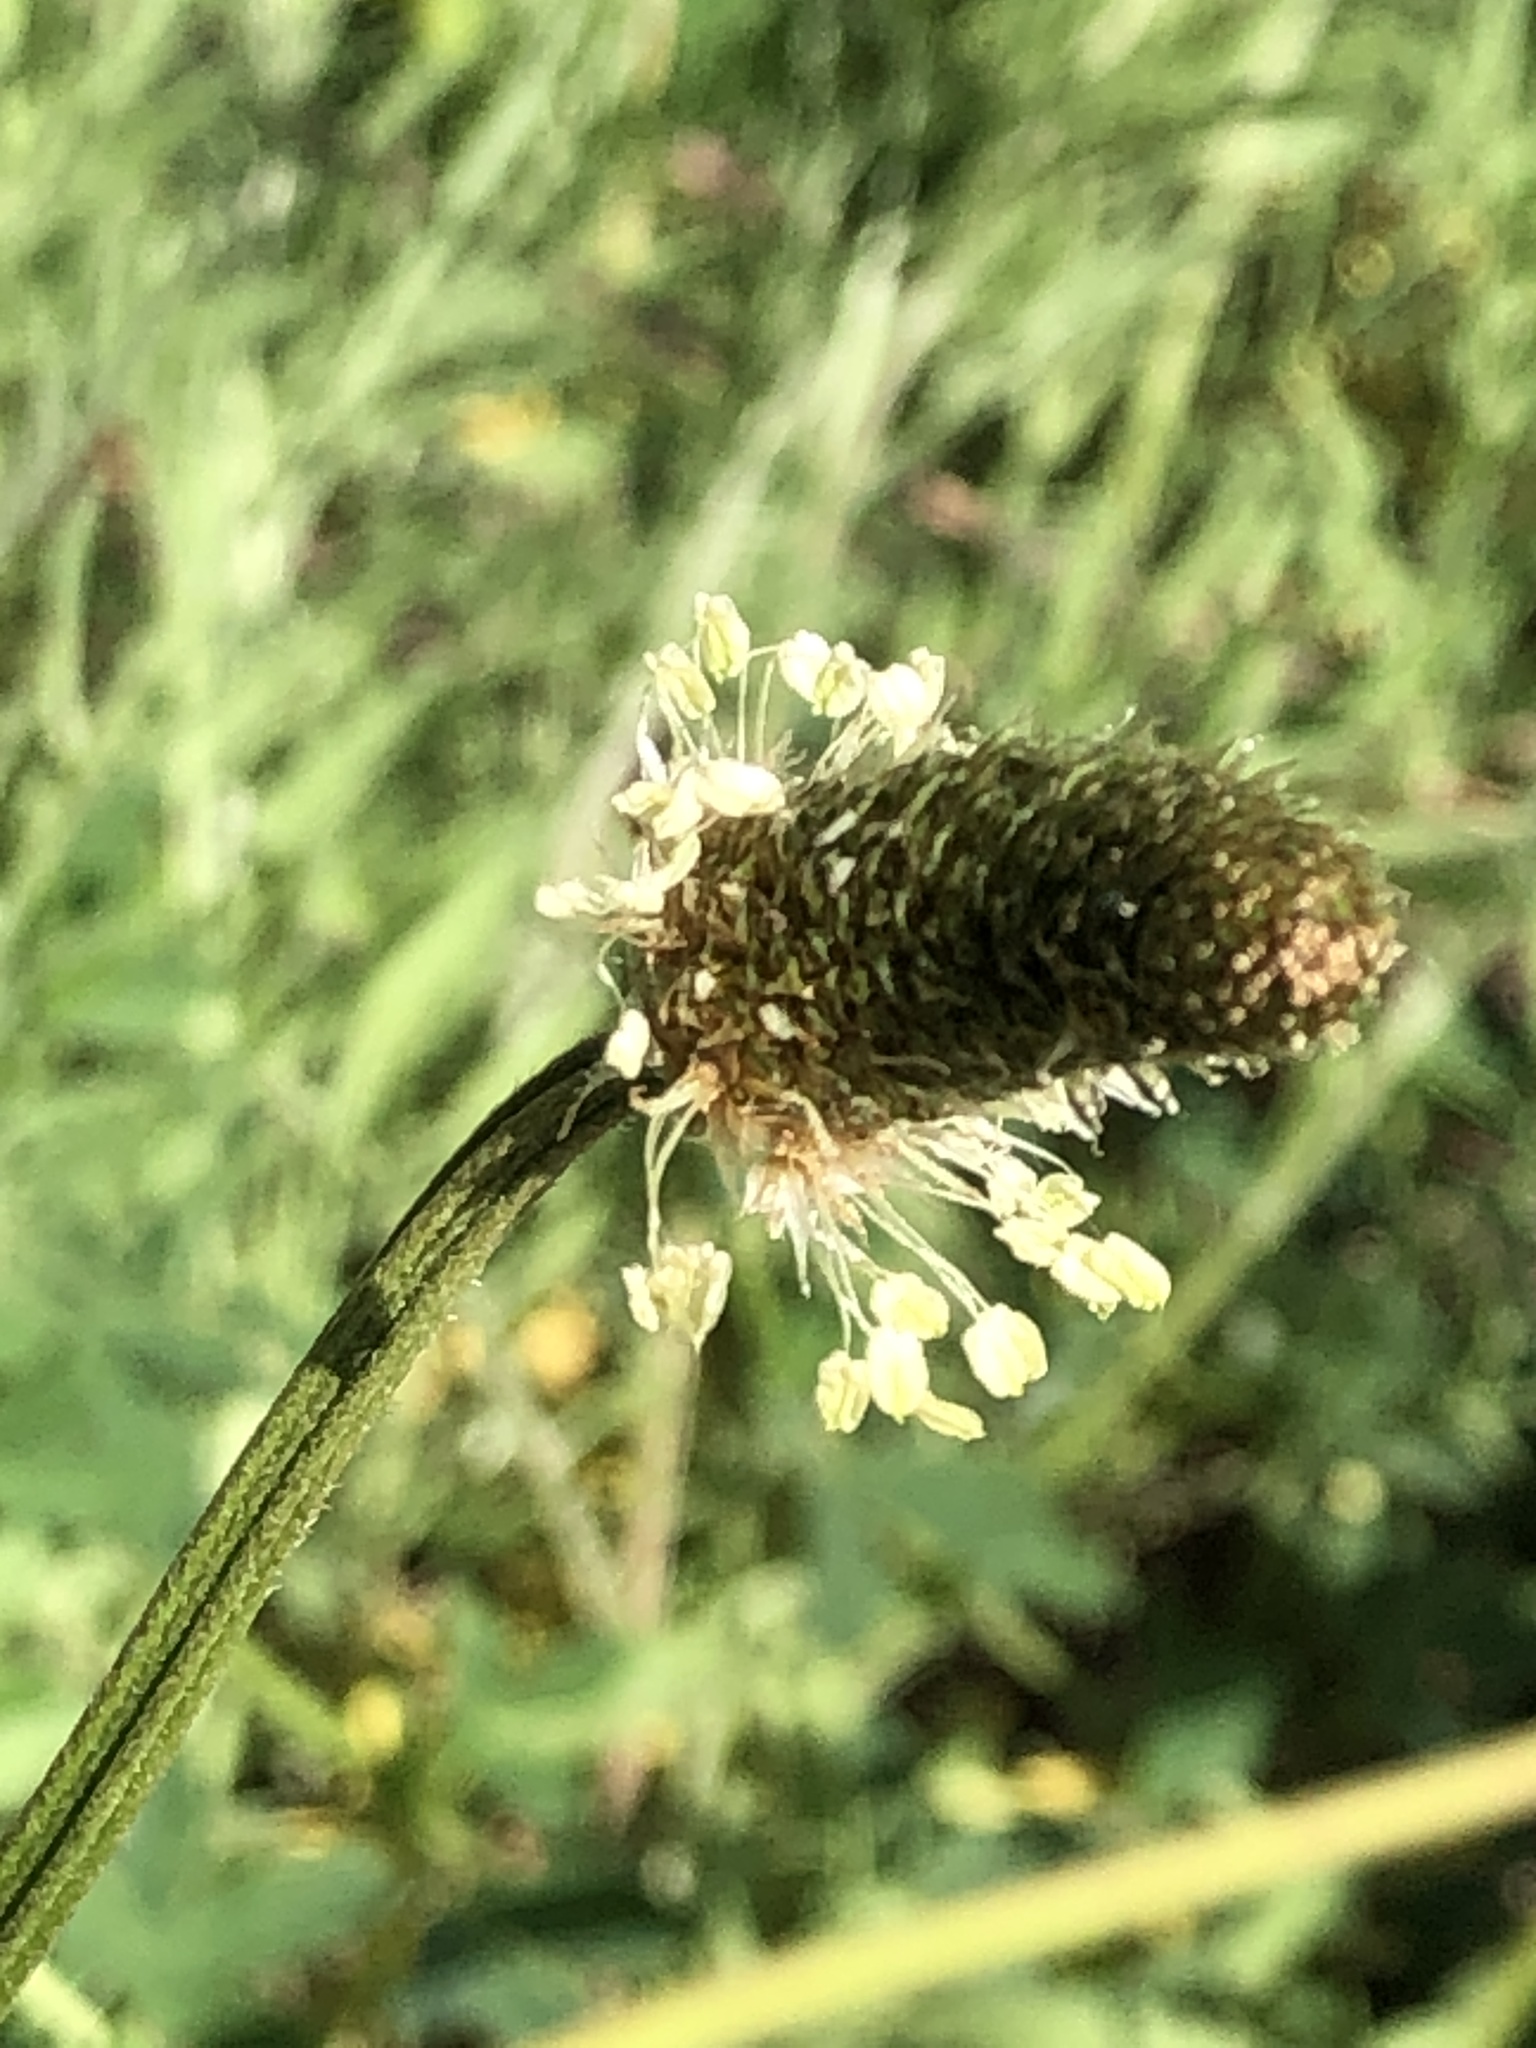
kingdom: Plantae
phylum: Tracheophyta
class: Magnoliopsida
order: Lamiales
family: Plantaginaceae
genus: Plantago
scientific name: Plantago lanceolata
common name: Ribwort plantain
